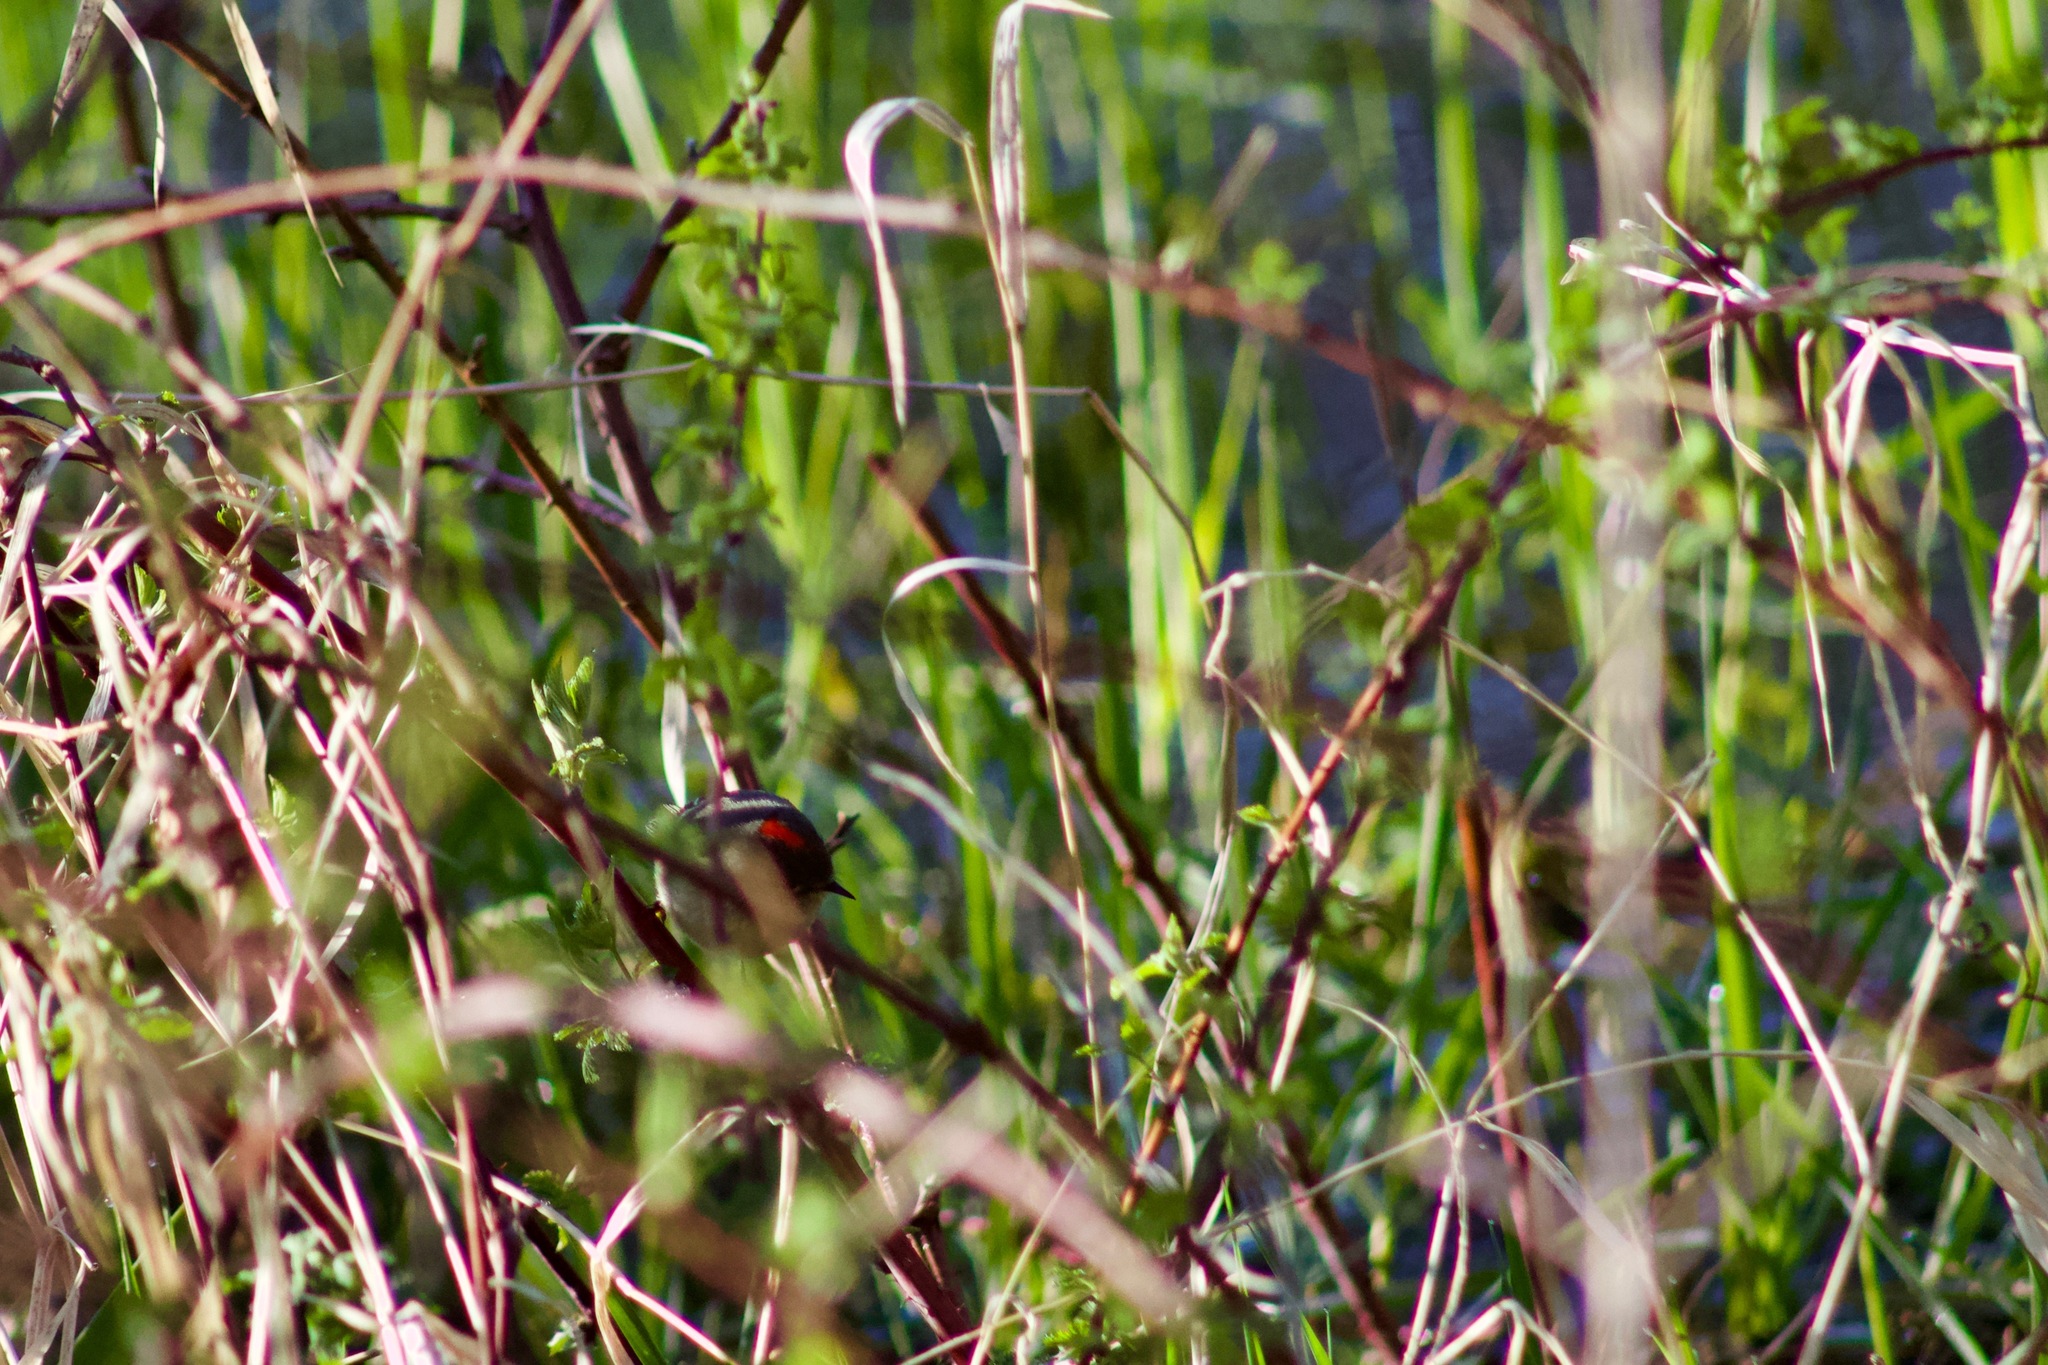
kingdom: Animalia
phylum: Chordata
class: Aves
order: Passeriformes
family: Regulidae
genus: Regulus
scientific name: Regulus calendula
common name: Ruby-crowned kinglet
